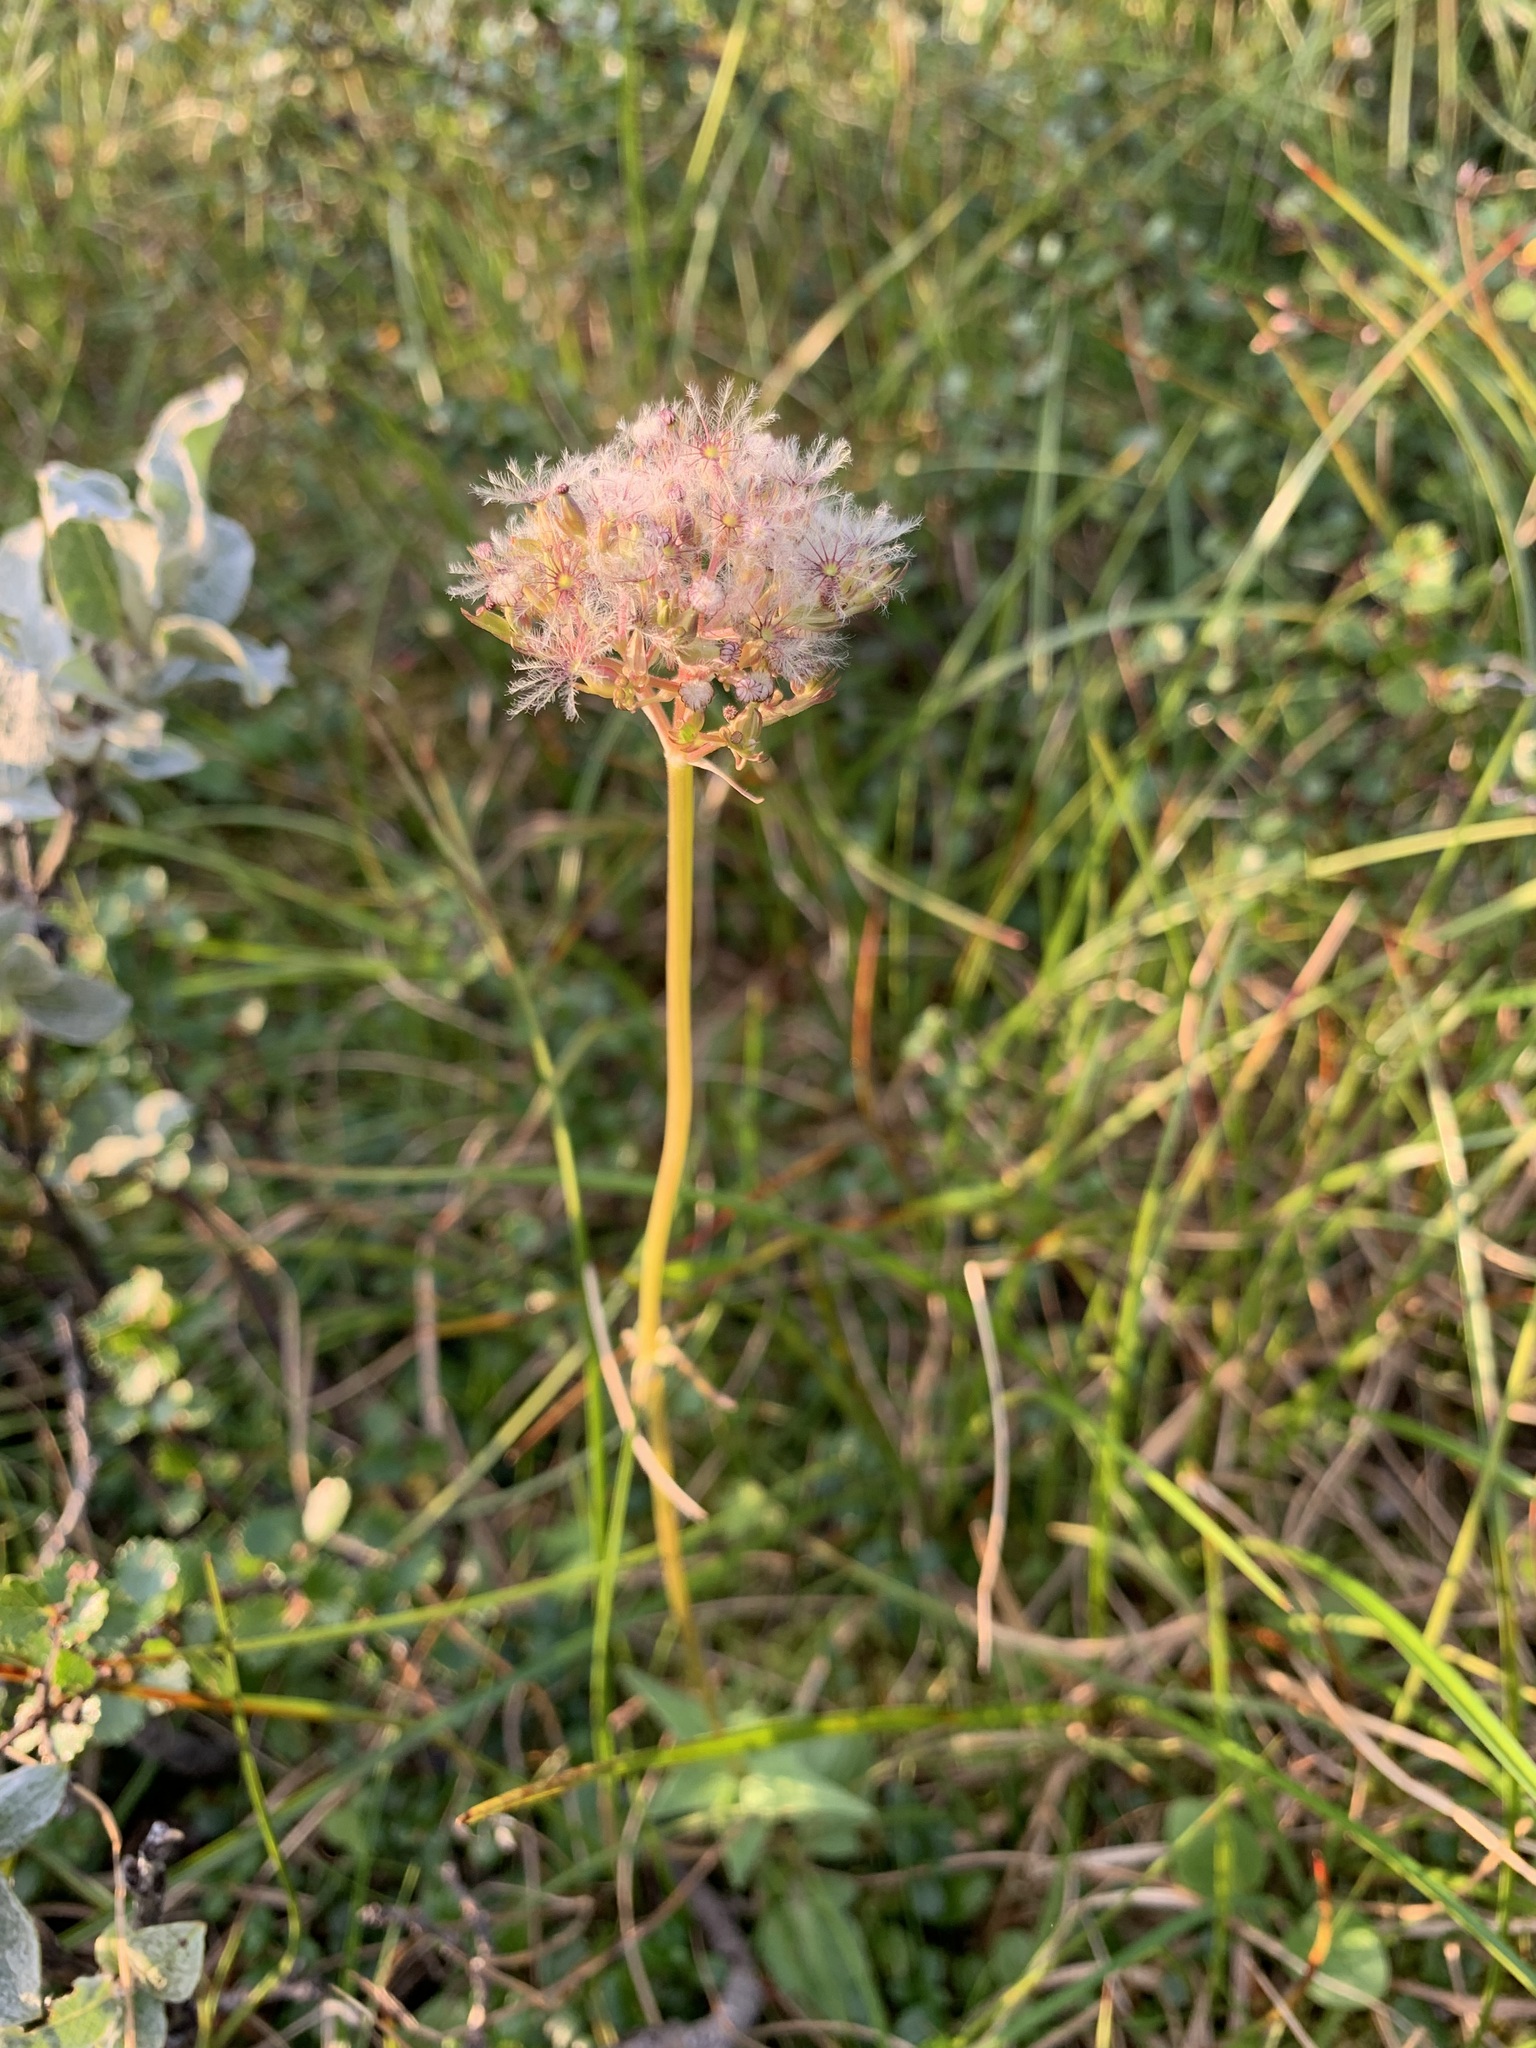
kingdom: Plantae
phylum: Tracheophyta
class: Magnoliopsida
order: Dipsacales
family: Caprifoliaceae
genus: Valeriana
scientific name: Valeriana capitata
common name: Capitate valerian
